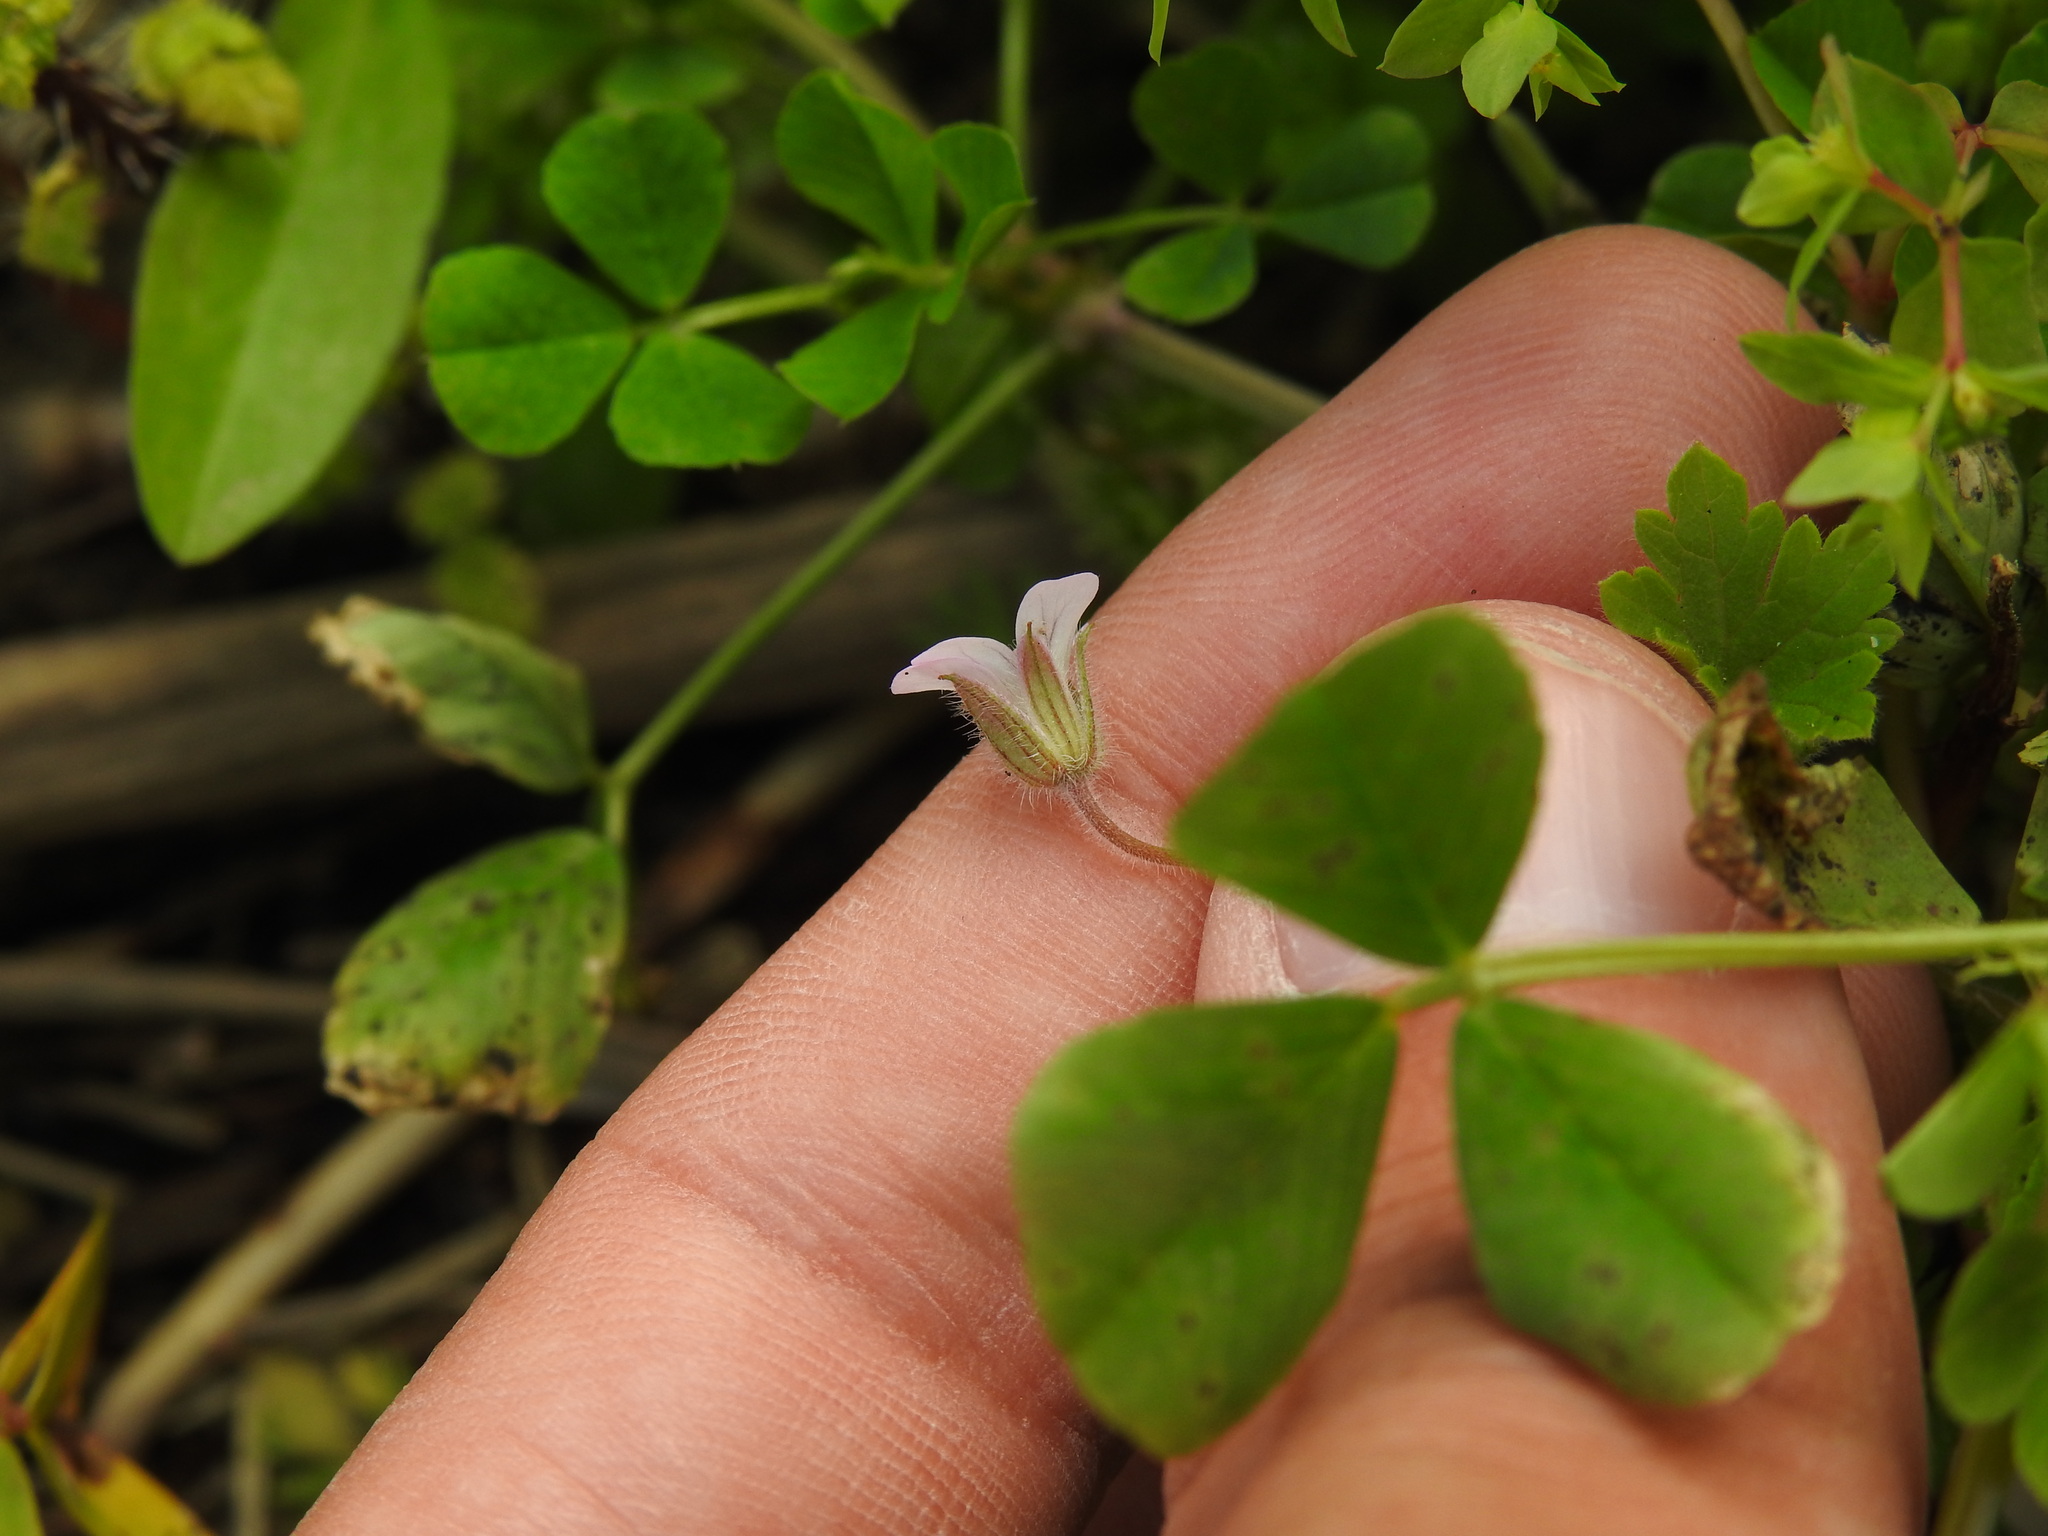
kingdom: Plantae
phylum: Tracheophyta
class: Magnoliopsida
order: Geraniales
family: Geraniaceae
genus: Geranium
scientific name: Geranium rotundifolium
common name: Round-leaved crane's-bill
